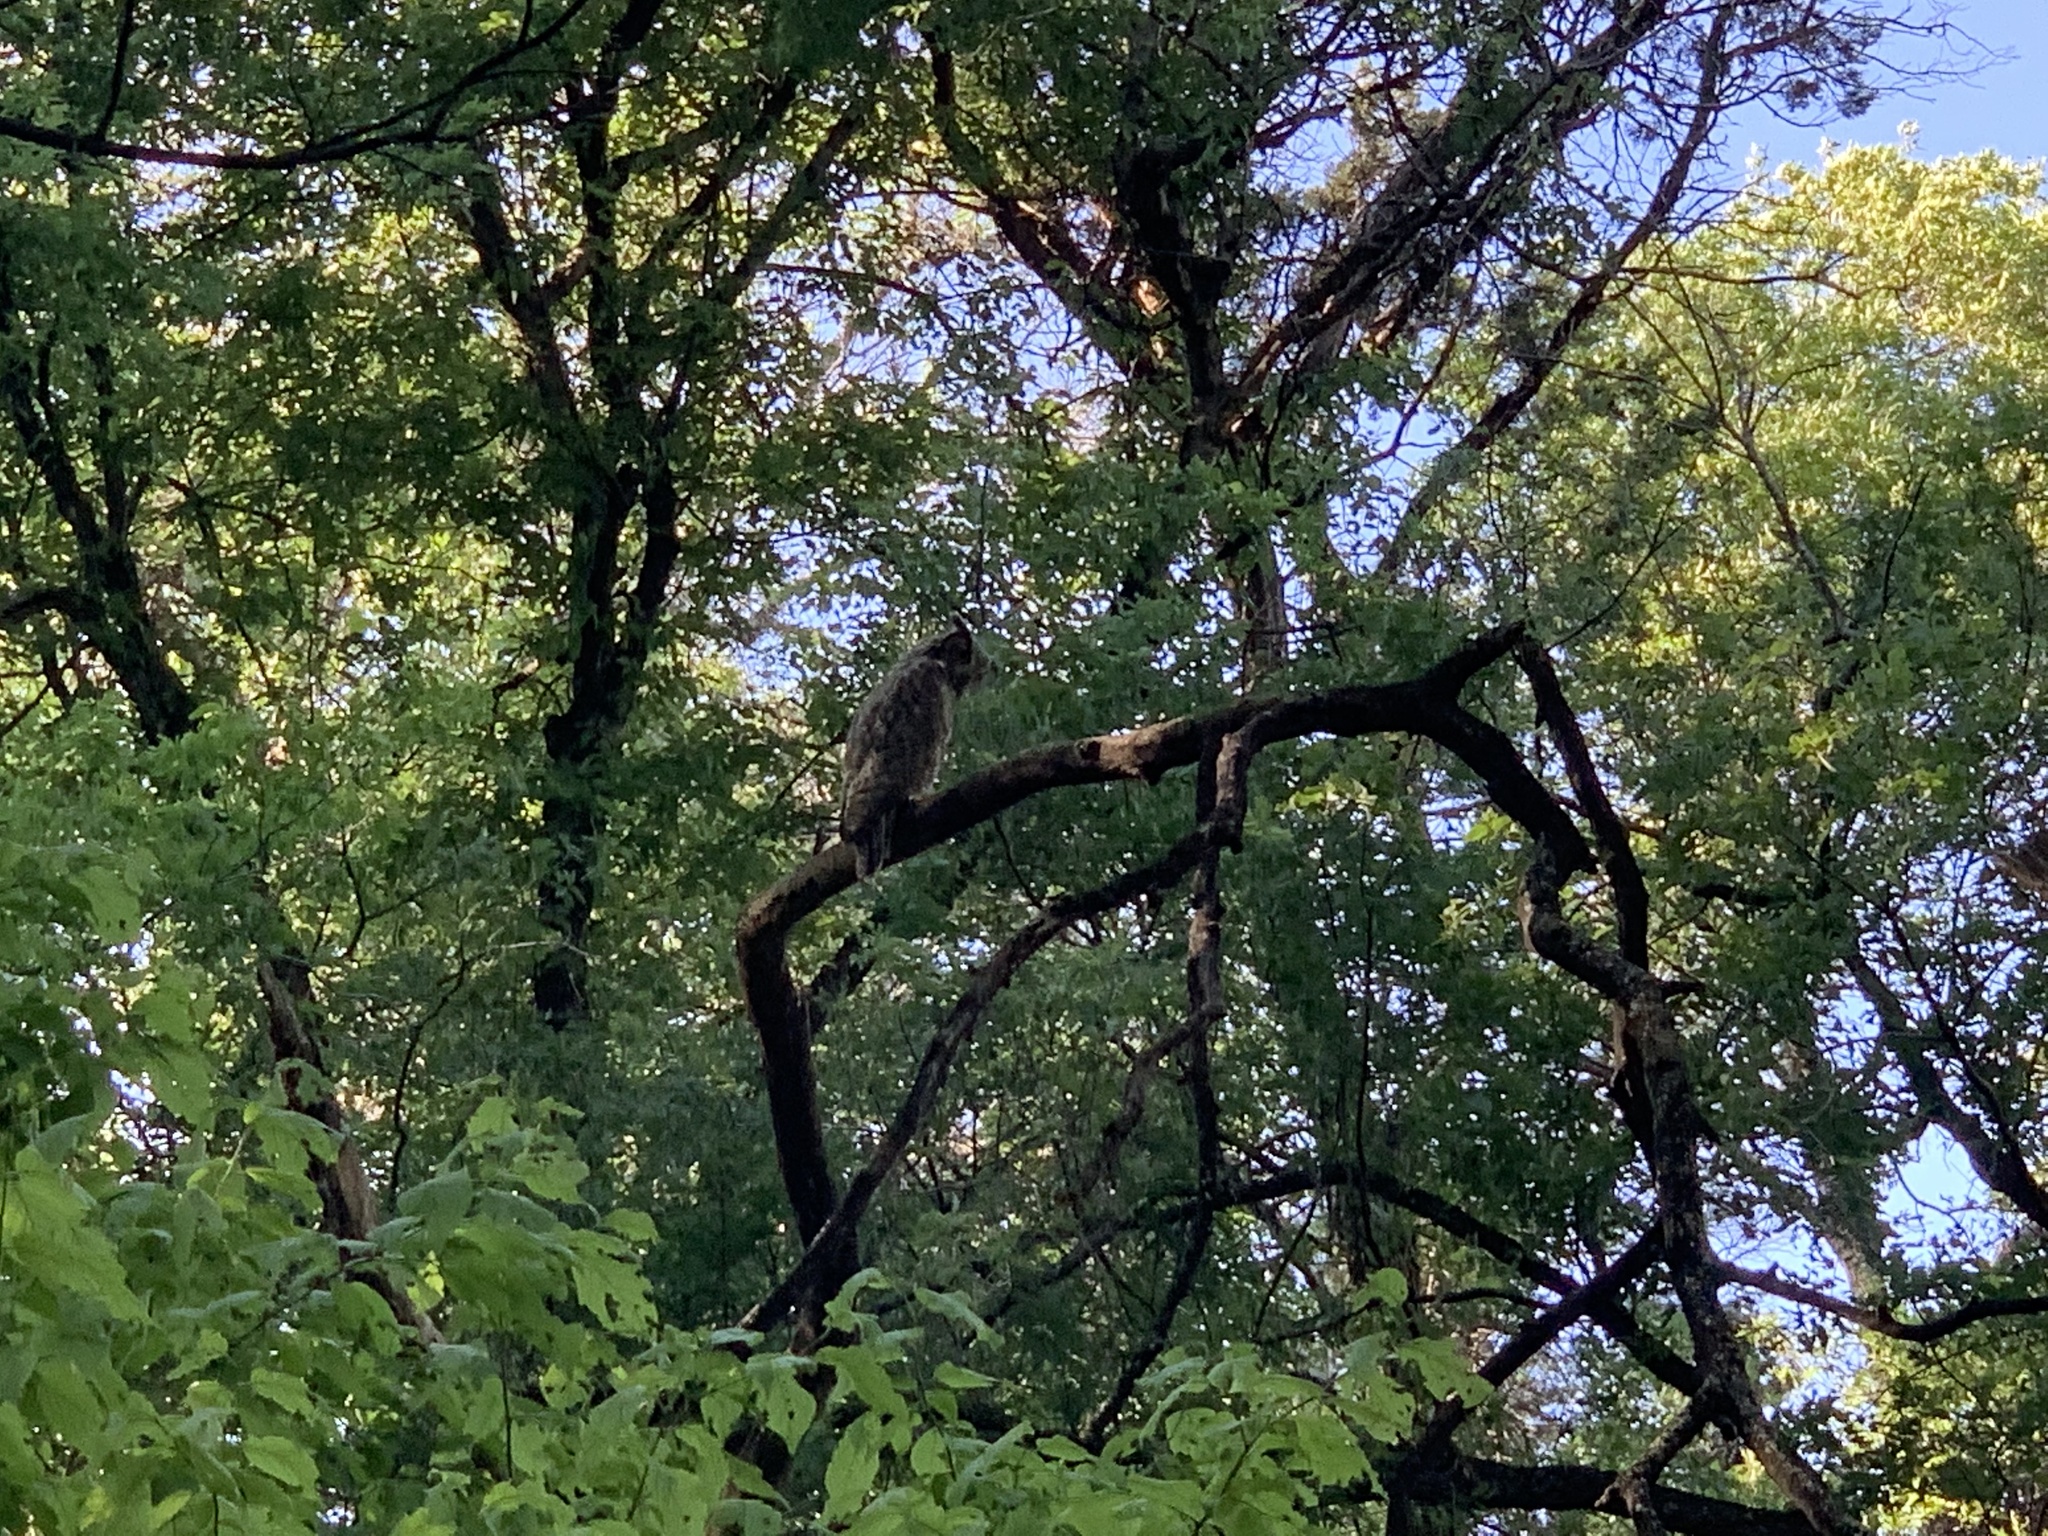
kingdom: Animalia
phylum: Chordata
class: Aves
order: Strigiformes
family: Strigidae
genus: Bubo
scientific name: Bubo virginianus
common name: Great horned owl
